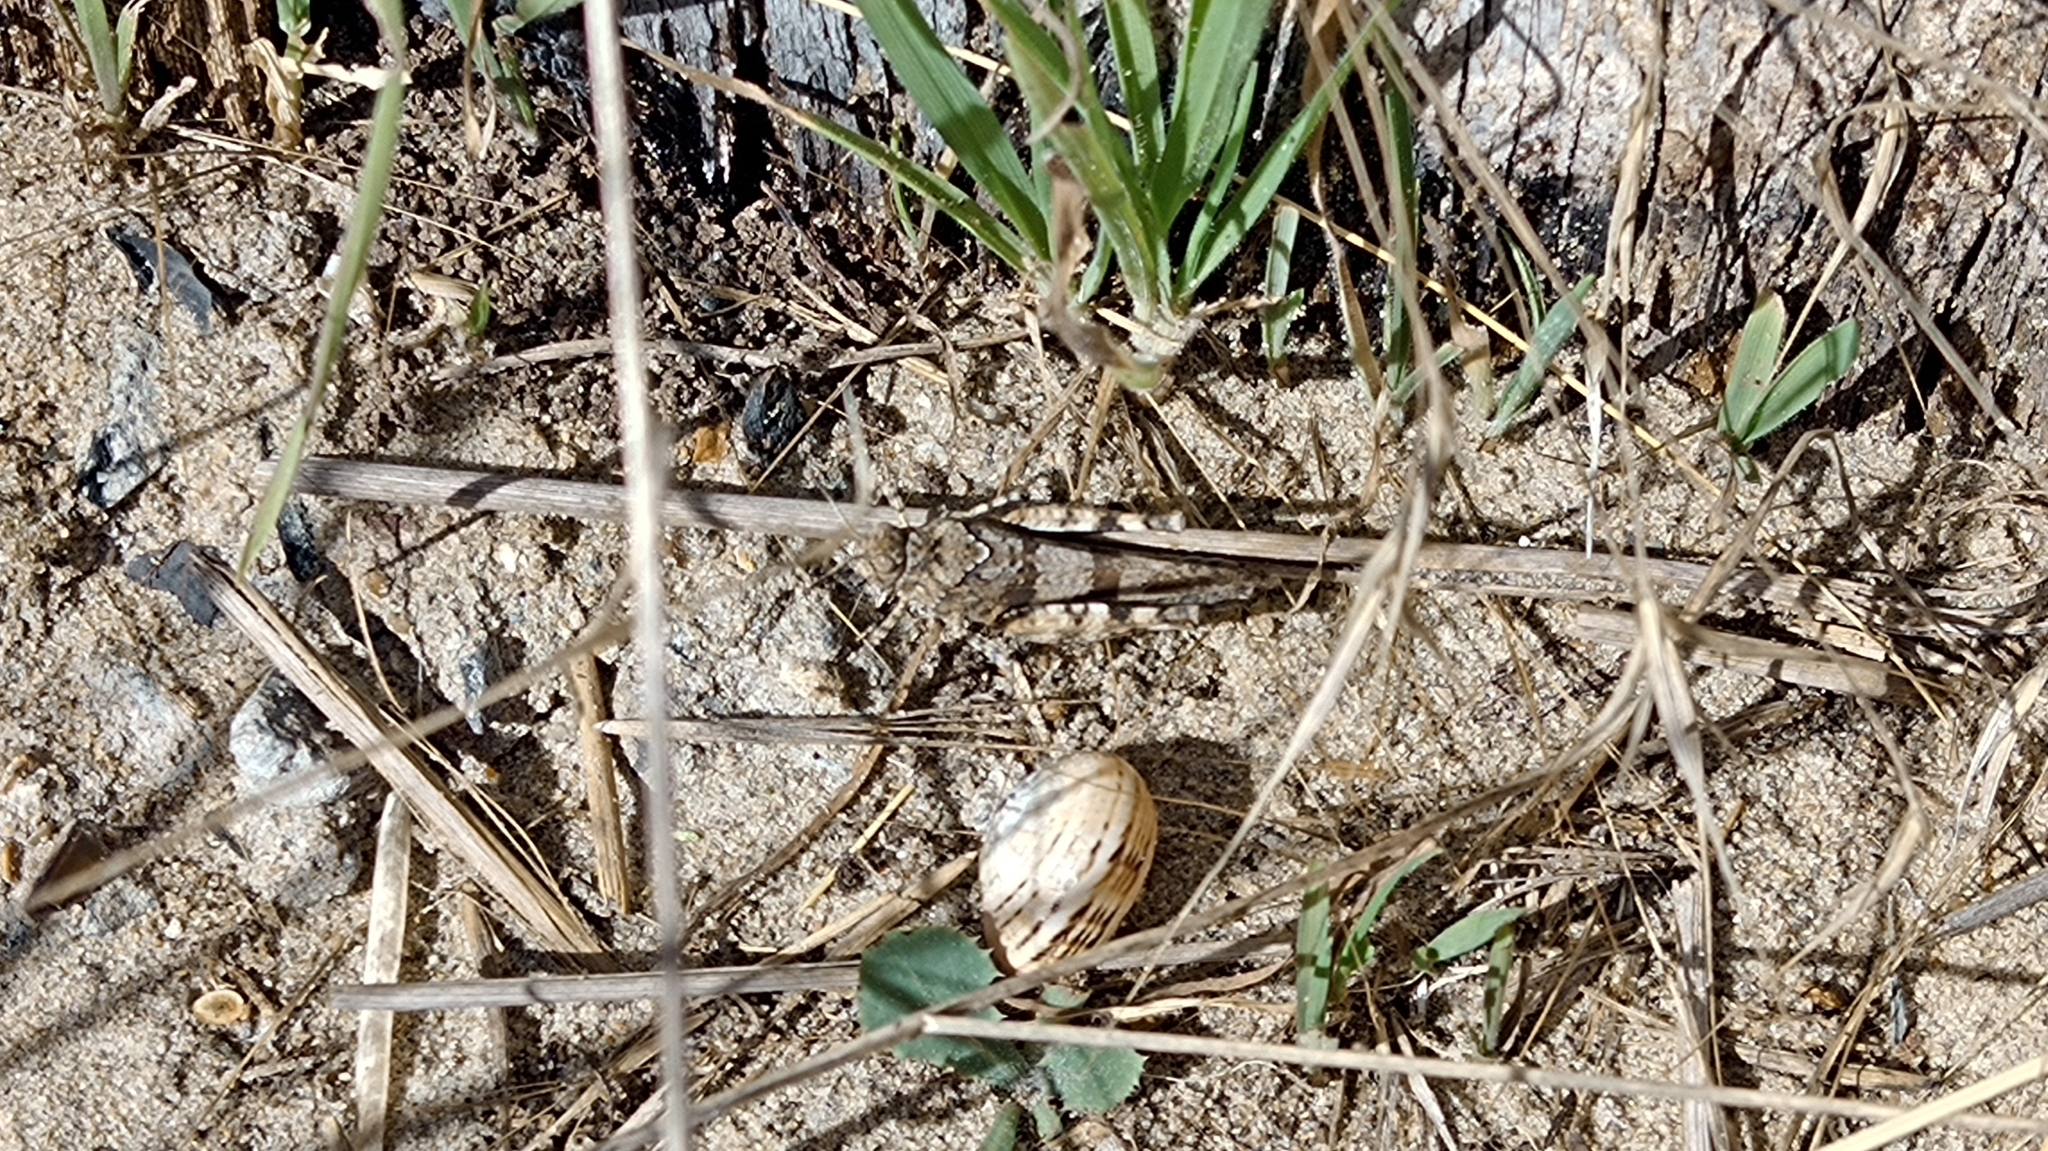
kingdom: Animalia
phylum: Arthropoda
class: Insecta
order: Orthoptera
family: Acrididae
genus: Oedipoda
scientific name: Oedipoda caerulescens
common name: Blue-winged grasshopper
